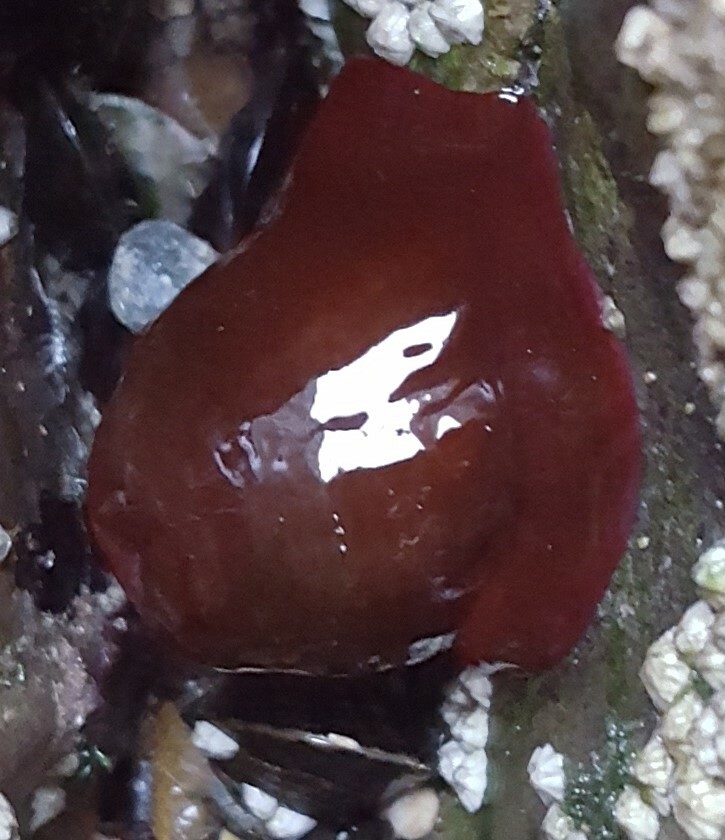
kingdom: Animalia
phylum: Cnidaria
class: Anthozoa
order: Actiniaria
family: Actiniidae
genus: Actinia
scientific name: Actinia equina
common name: Beadlet anemone
